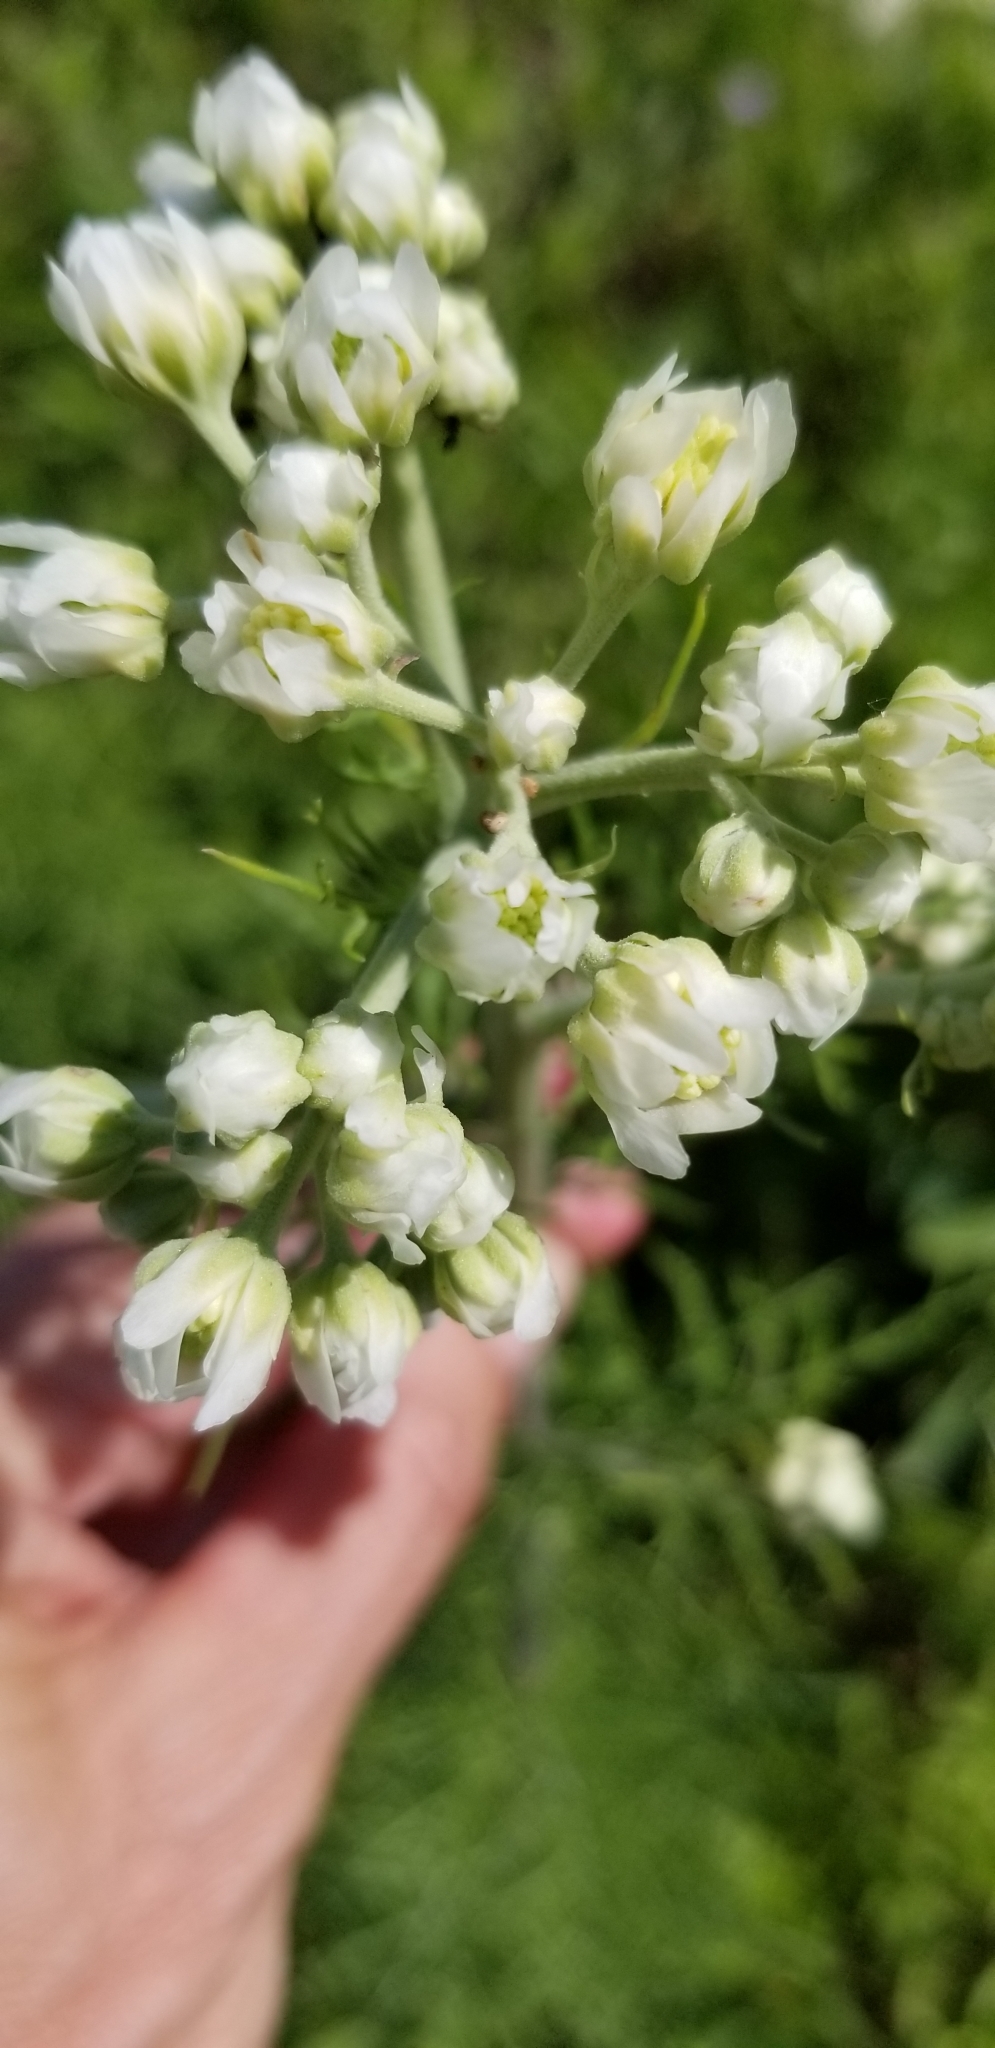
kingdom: Plantae
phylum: Tracheophyta
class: Magnoliopsida
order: Asterales
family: Asteraceae
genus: Hymenopappus
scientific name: Hymenopappus scabiosaeus
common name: Carolina woollywhite
